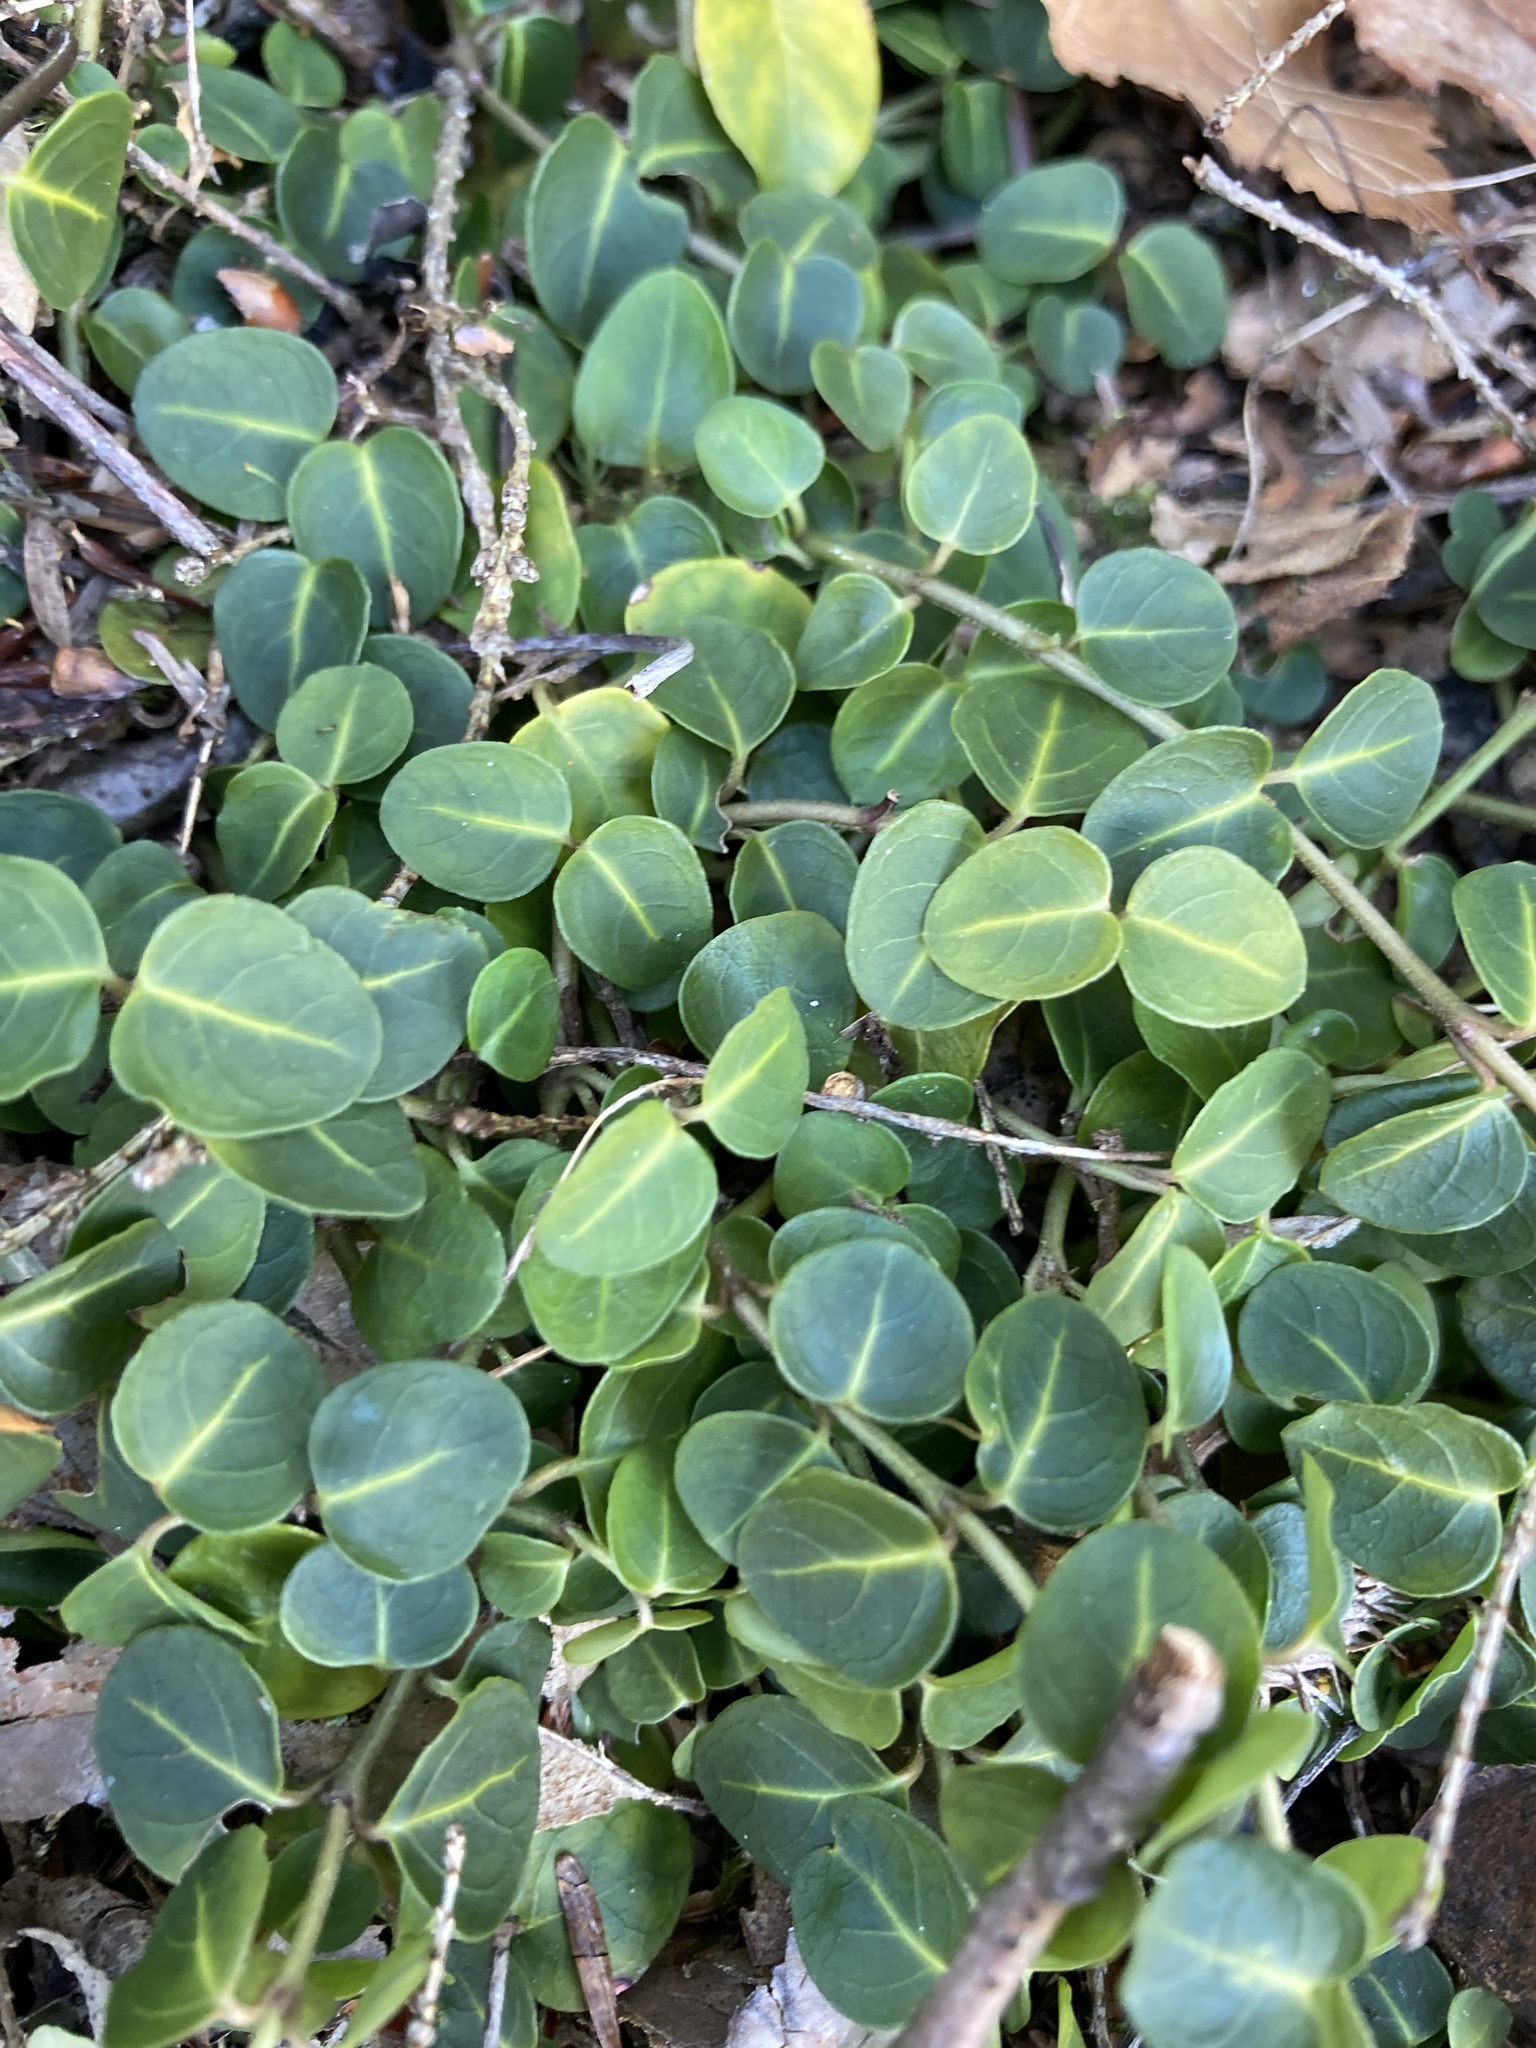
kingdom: Plantae
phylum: Tracheophyta
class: Magnoliopsida
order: Gentianales
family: Rubiaceae
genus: Mitchella
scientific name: Mitchella repens
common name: Partridge-berry
